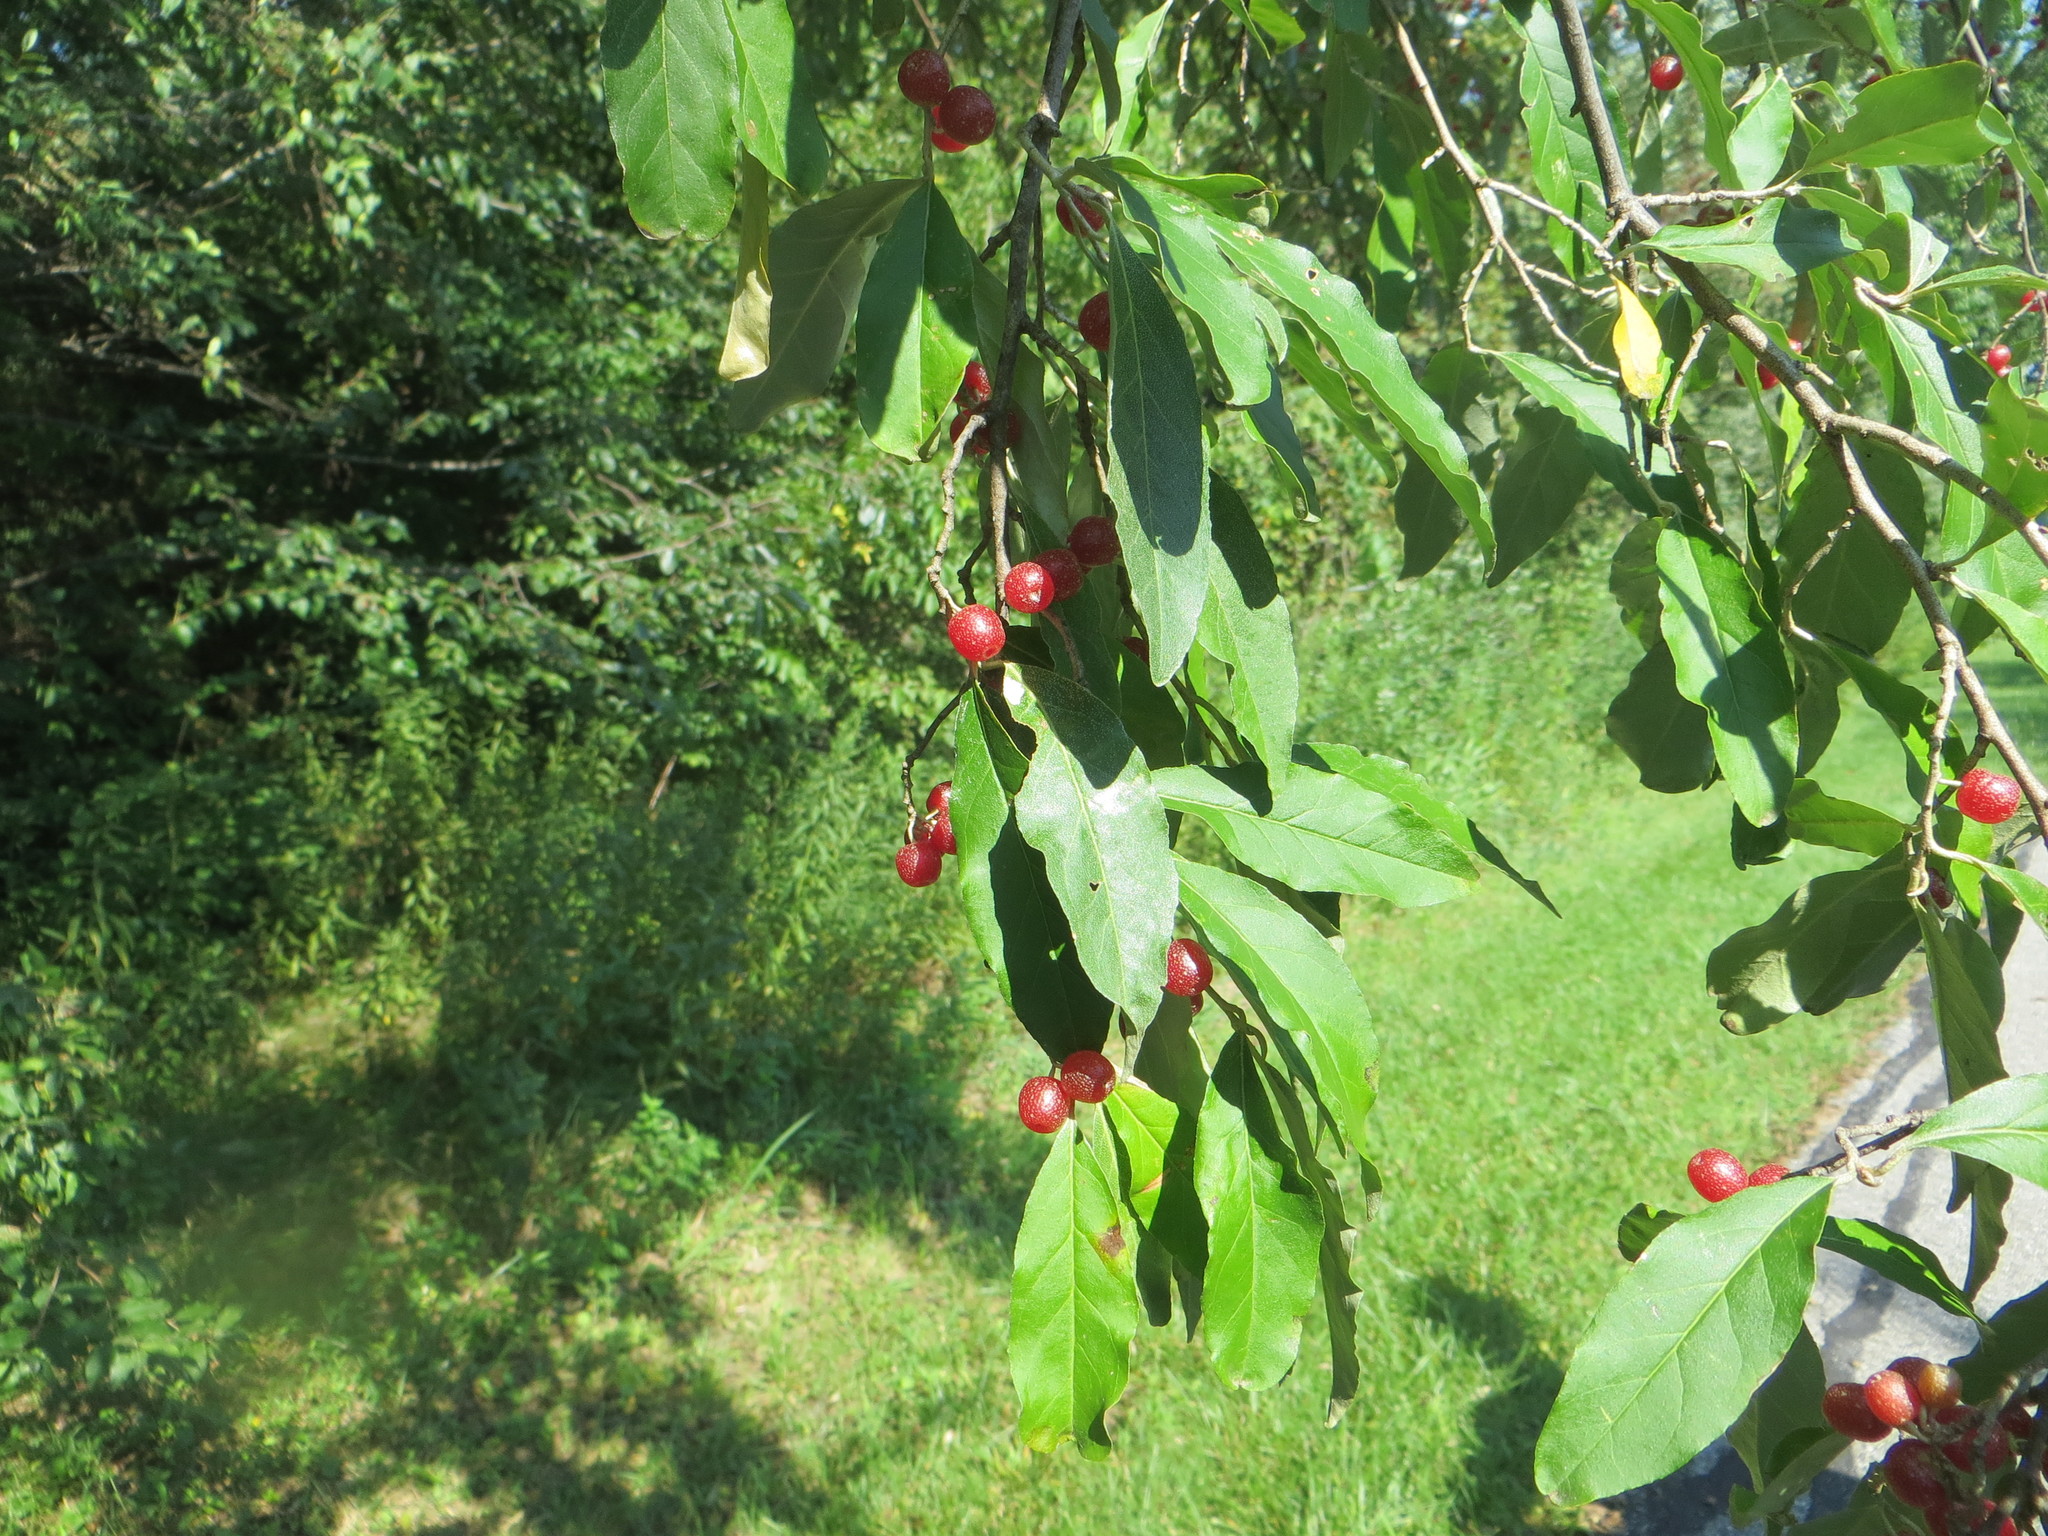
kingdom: Plantae
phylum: Tracheophyta
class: Magnoliopsida
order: Rosales
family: Elaeagnaceae
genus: Elaeagnus
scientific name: Elaeagnus umbellata
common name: Autumn olive
